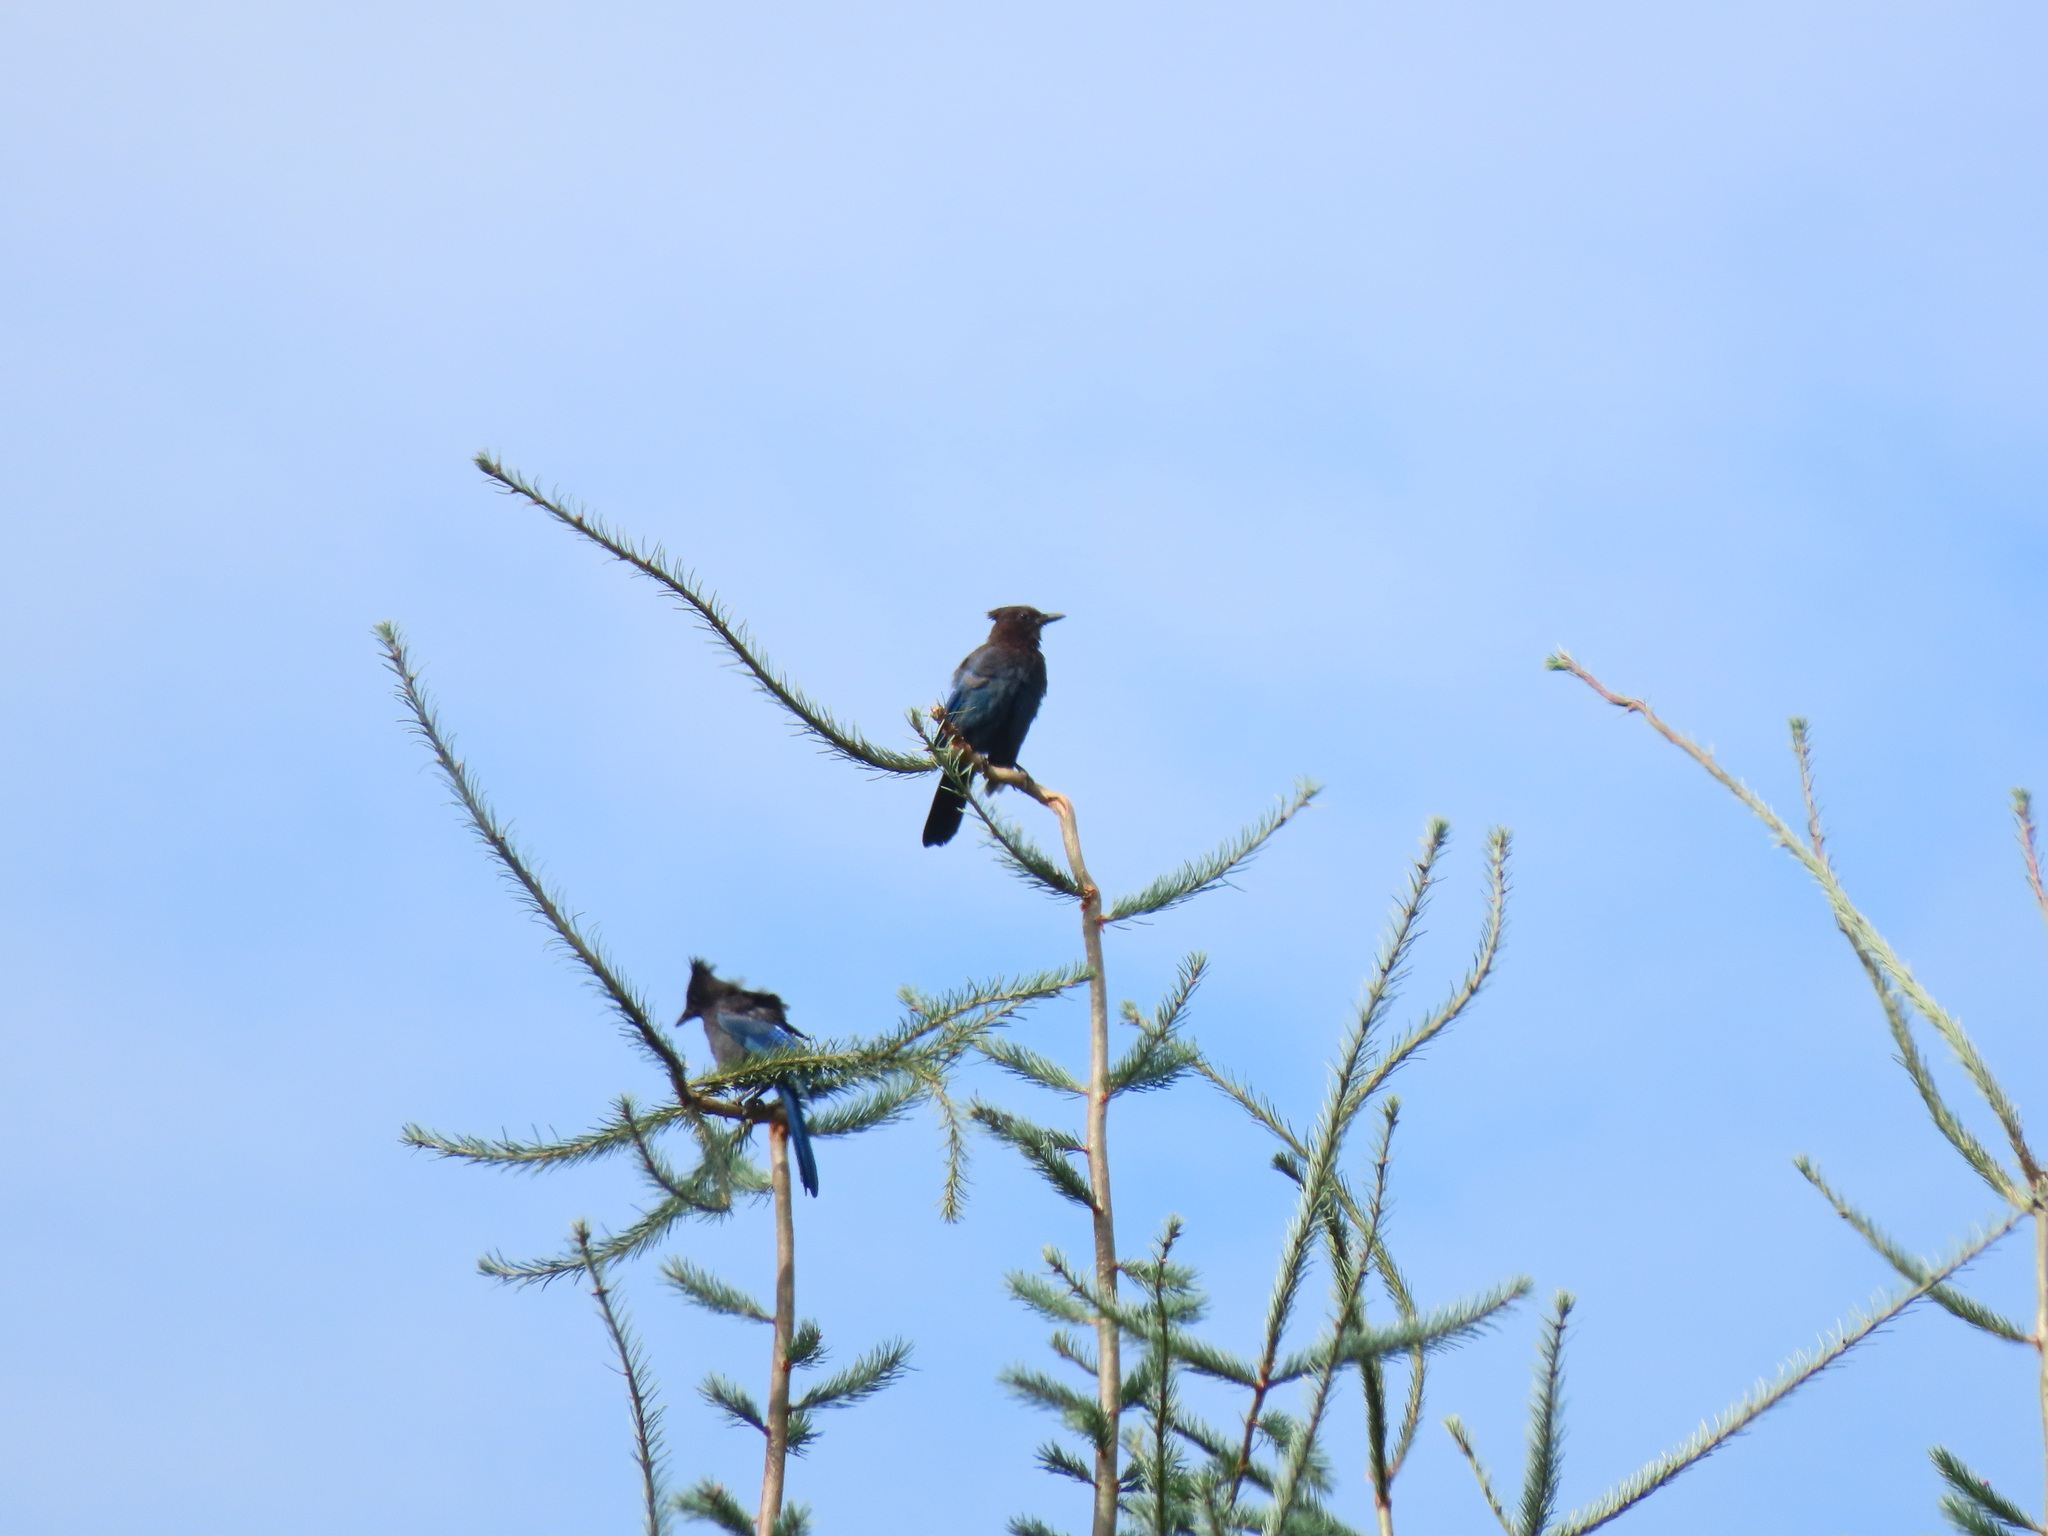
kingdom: Animalia
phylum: Chordata
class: Aves
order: Passeriformes
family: Corvidae
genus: Cyanocitta
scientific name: Cyanocitta stelleri
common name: Steller's jay
